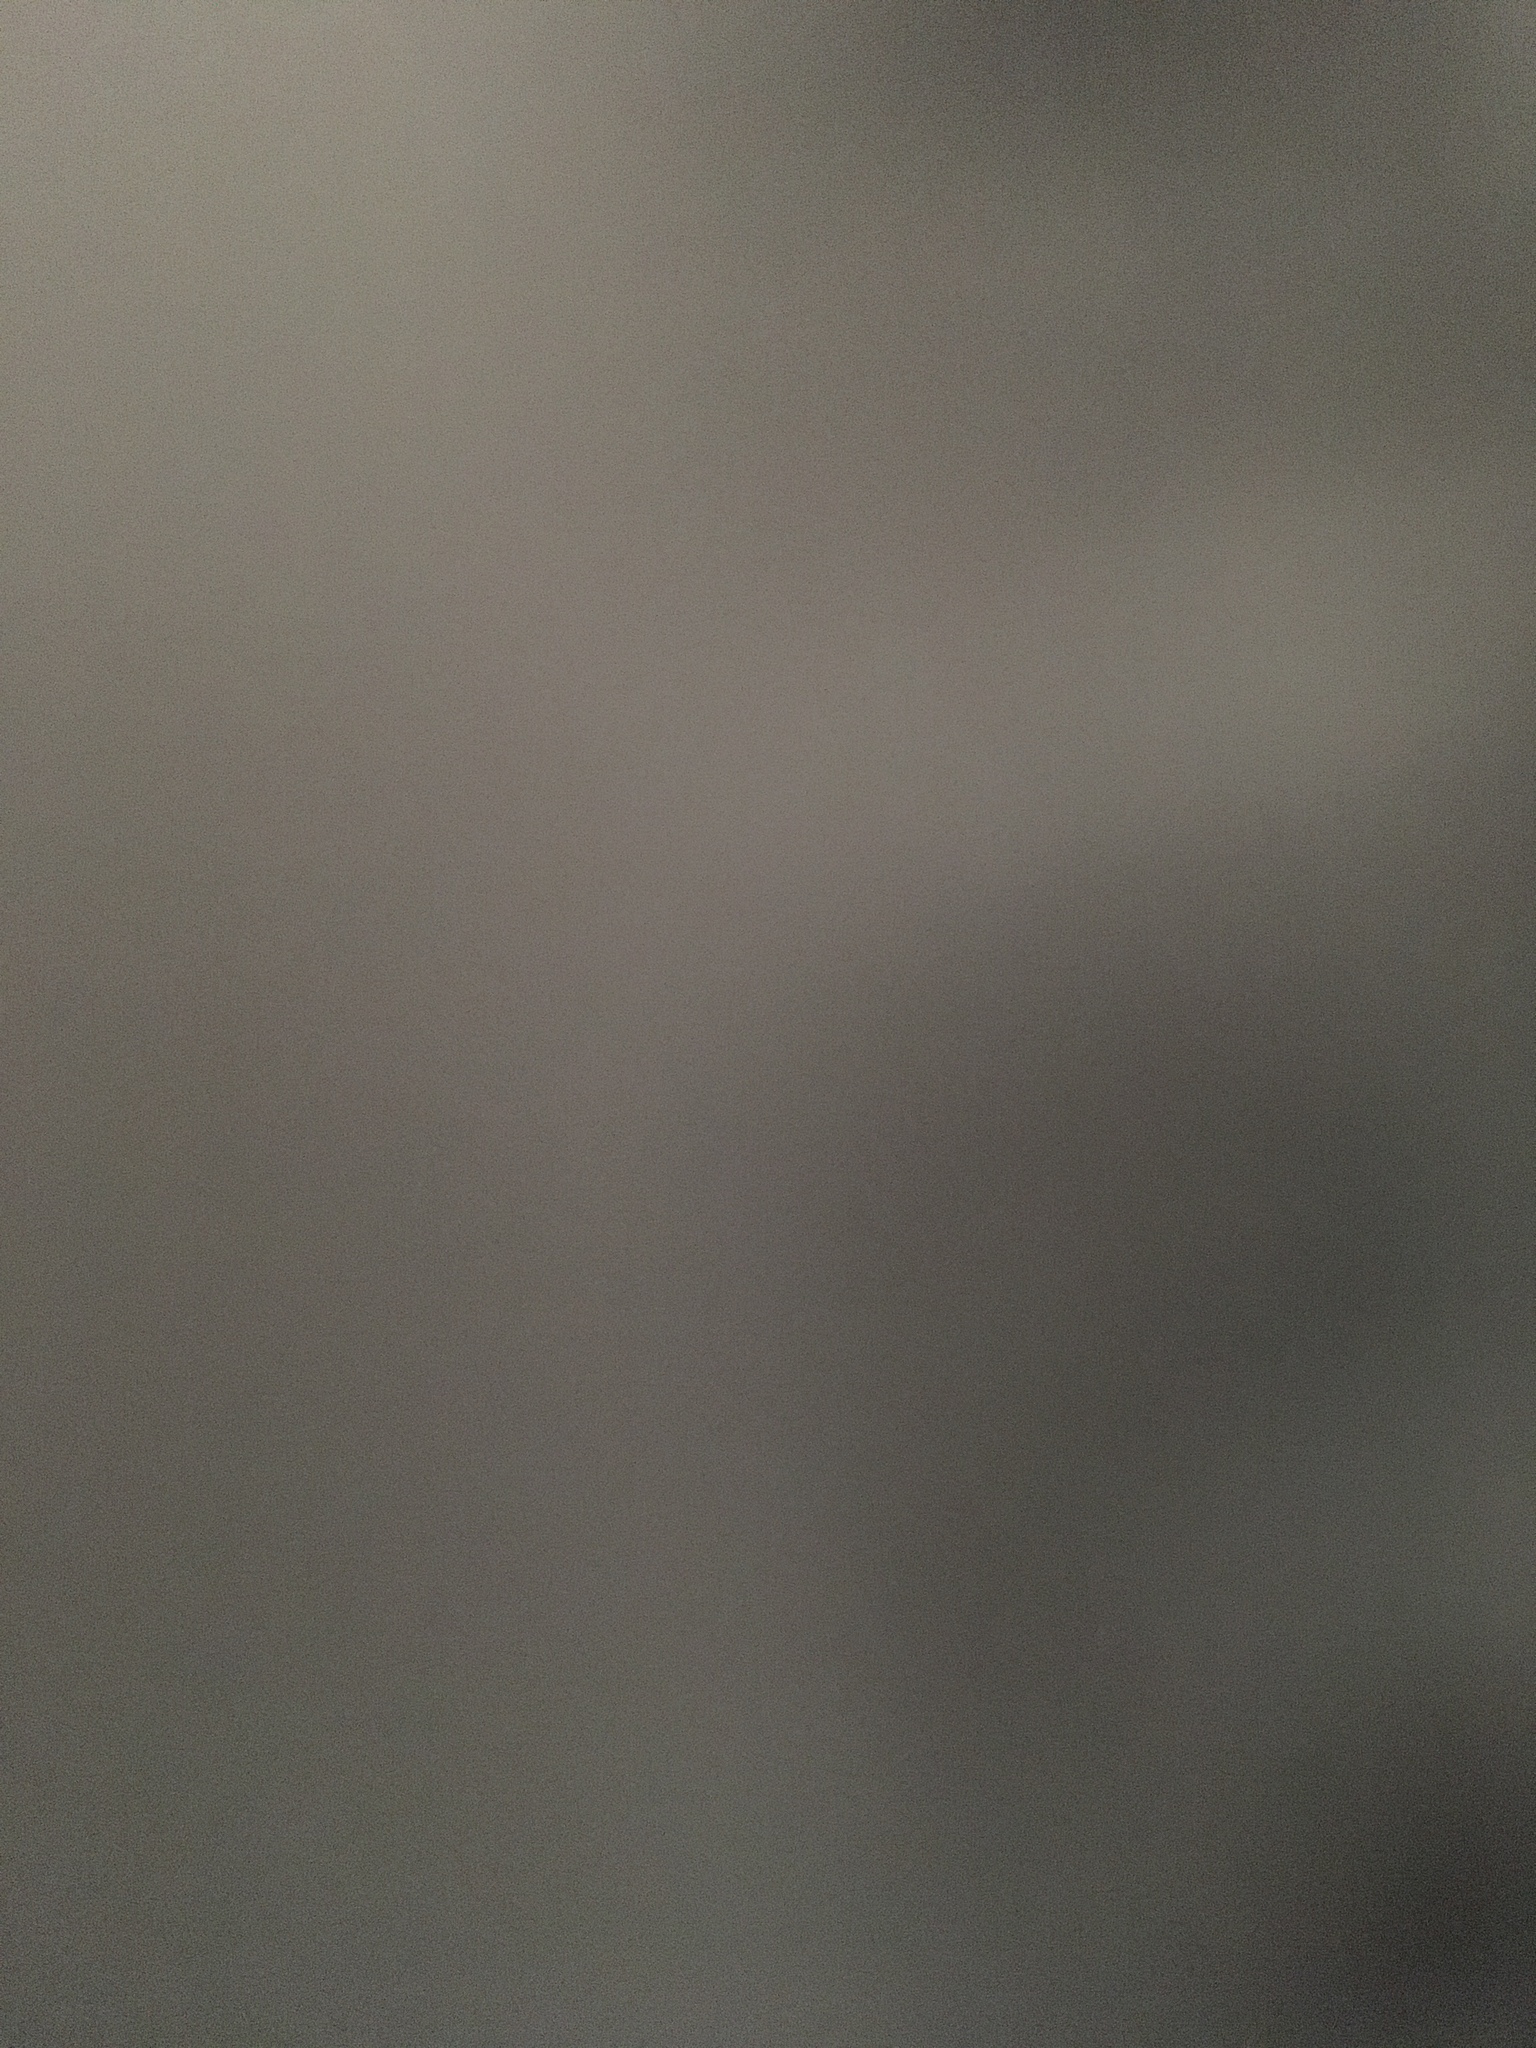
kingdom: Animalia
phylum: Chordata
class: Mammalia
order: Rodentia
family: Heteromyidae
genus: Chaetodipus
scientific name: Chaetodipus fallax
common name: San diego pocket mouse
